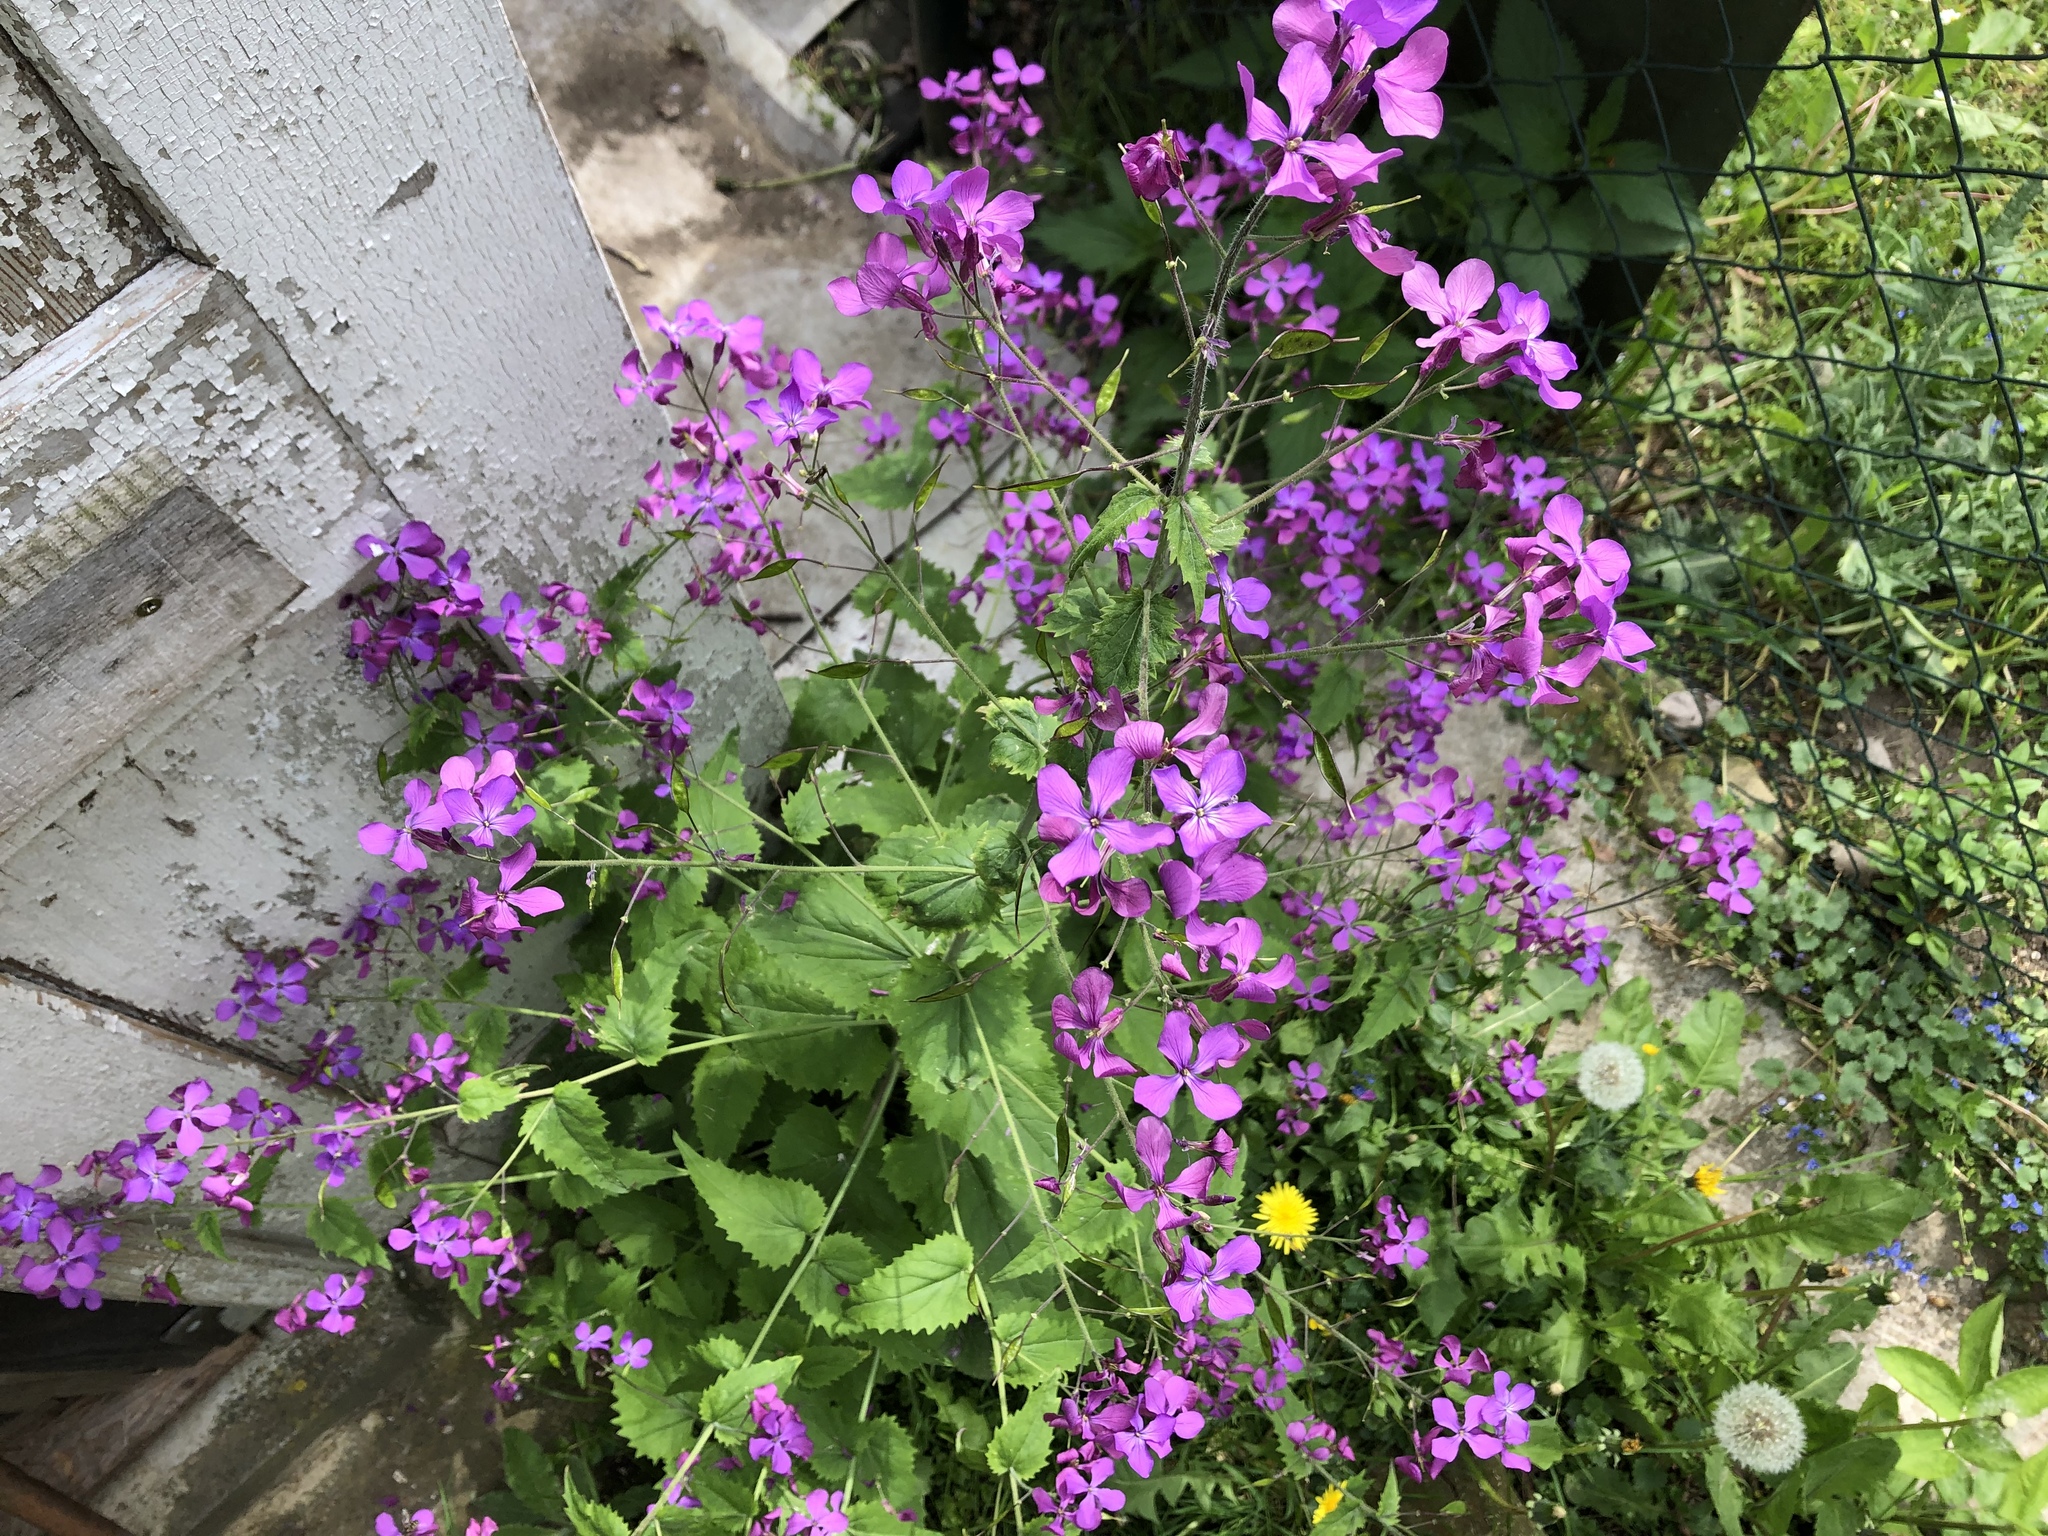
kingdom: Plantae
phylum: Tracheophyta
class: Magnoliopsida
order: Brassicales
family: Brassicaceae
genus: Lunaria
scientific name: Lunaria annua
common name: Honesty
